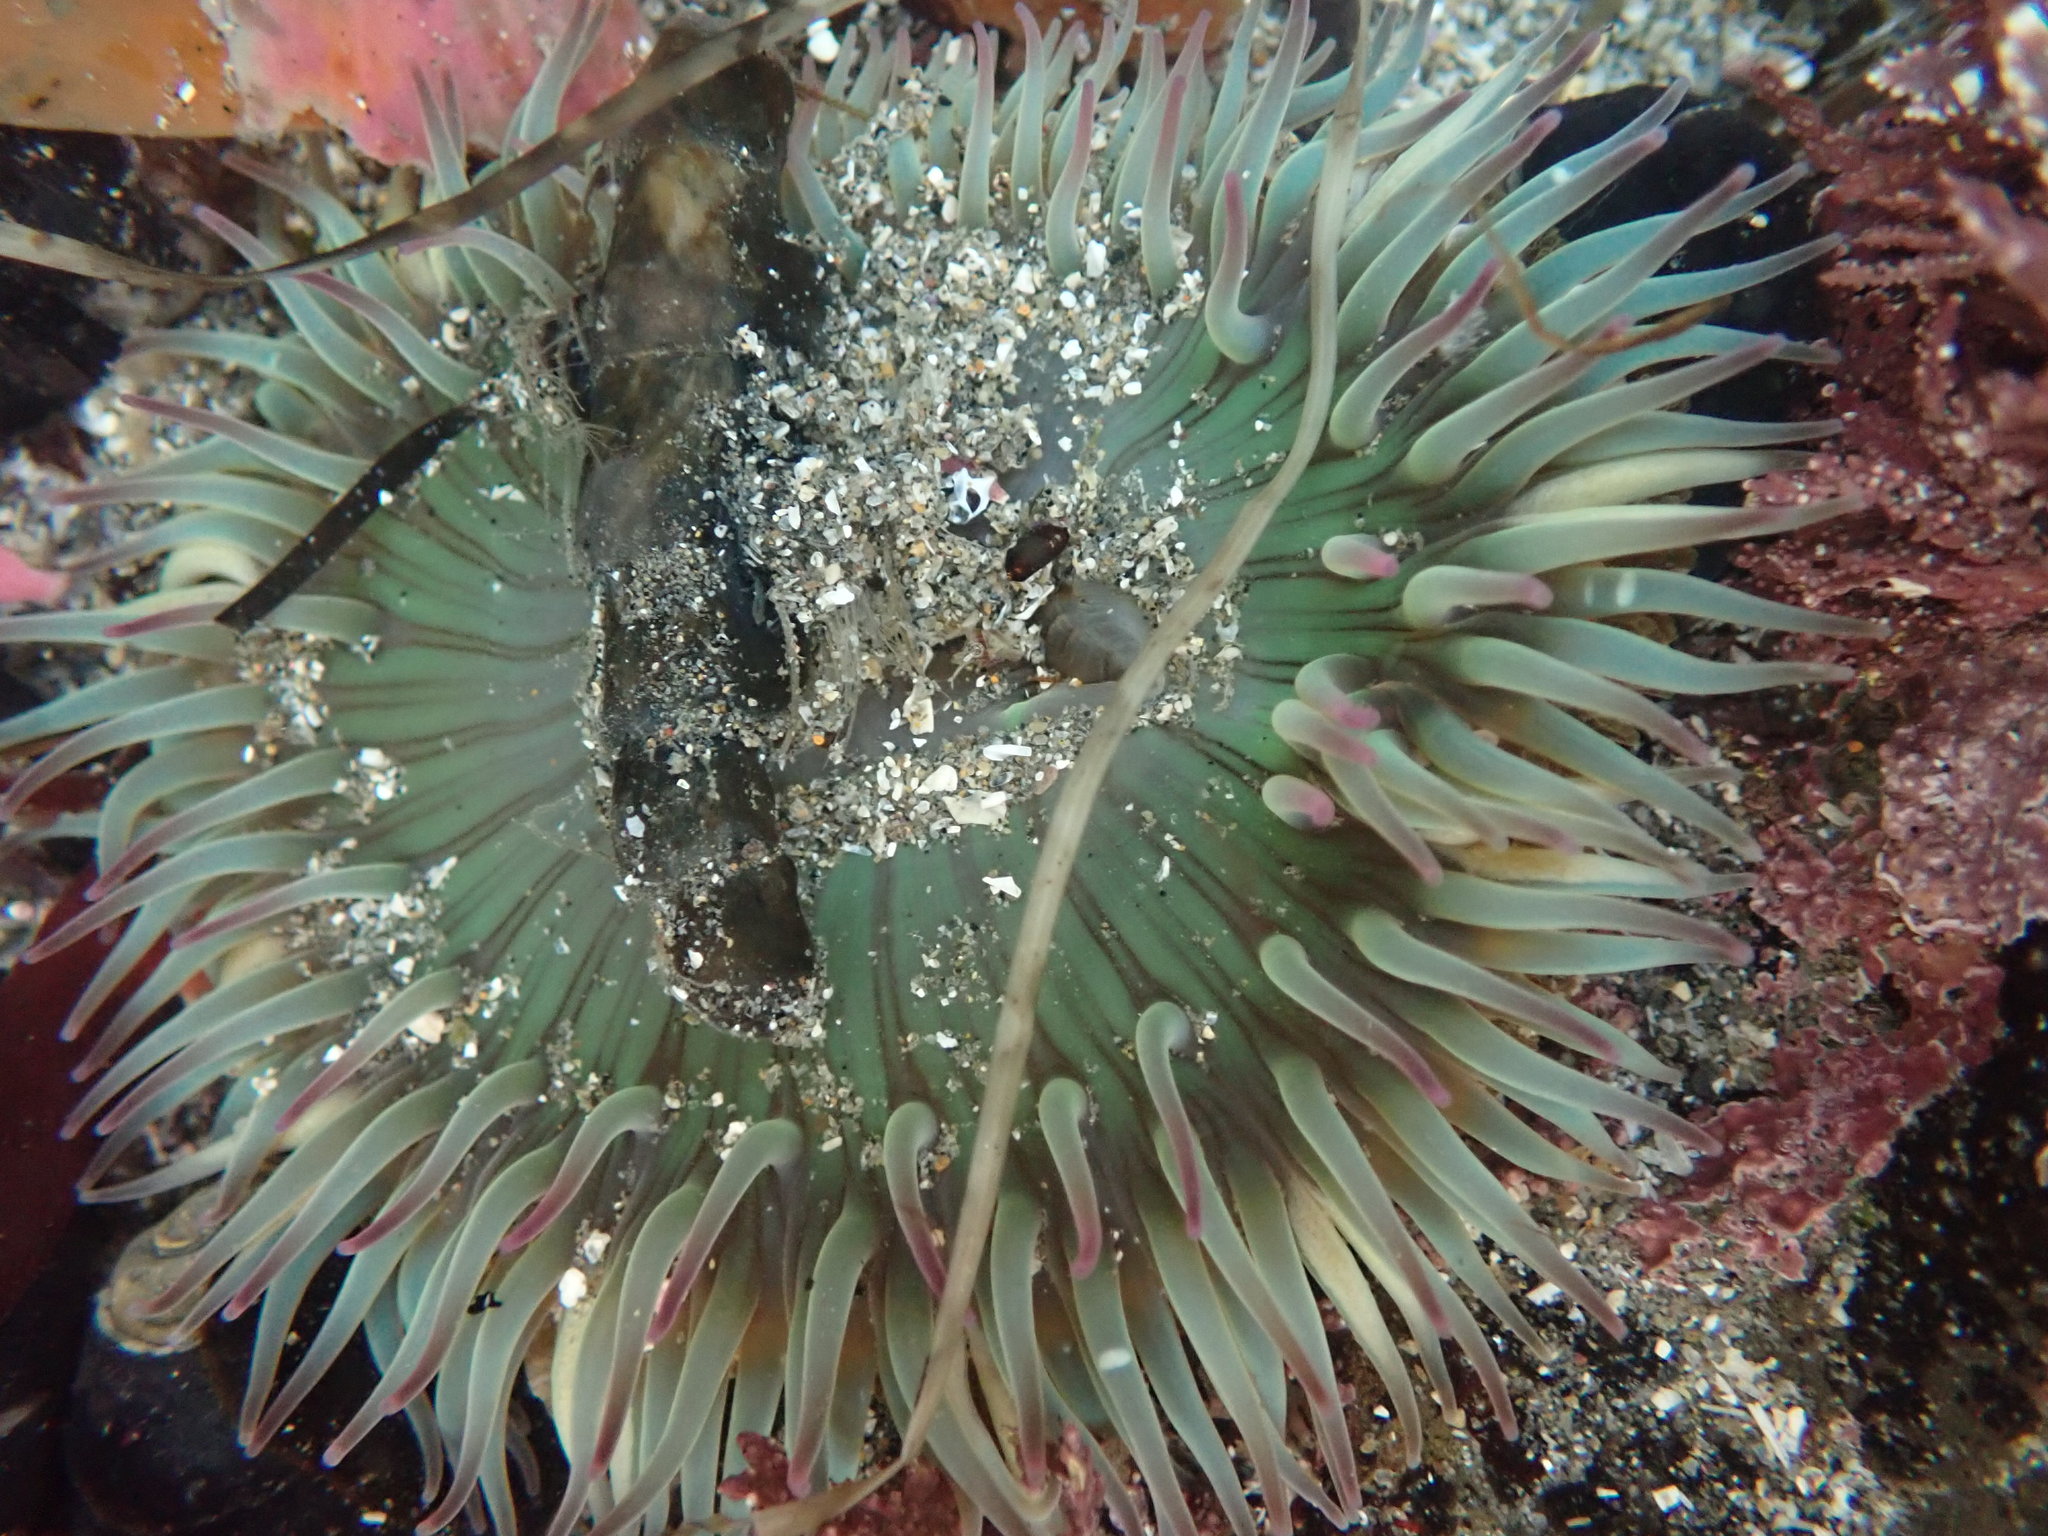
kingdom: Animalia
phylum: Cnidaria
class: Anthozoa
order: Actiniaria
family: Actiniidae
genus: Anthopleura
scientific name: Anthopleura sola
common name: Sun anemone
